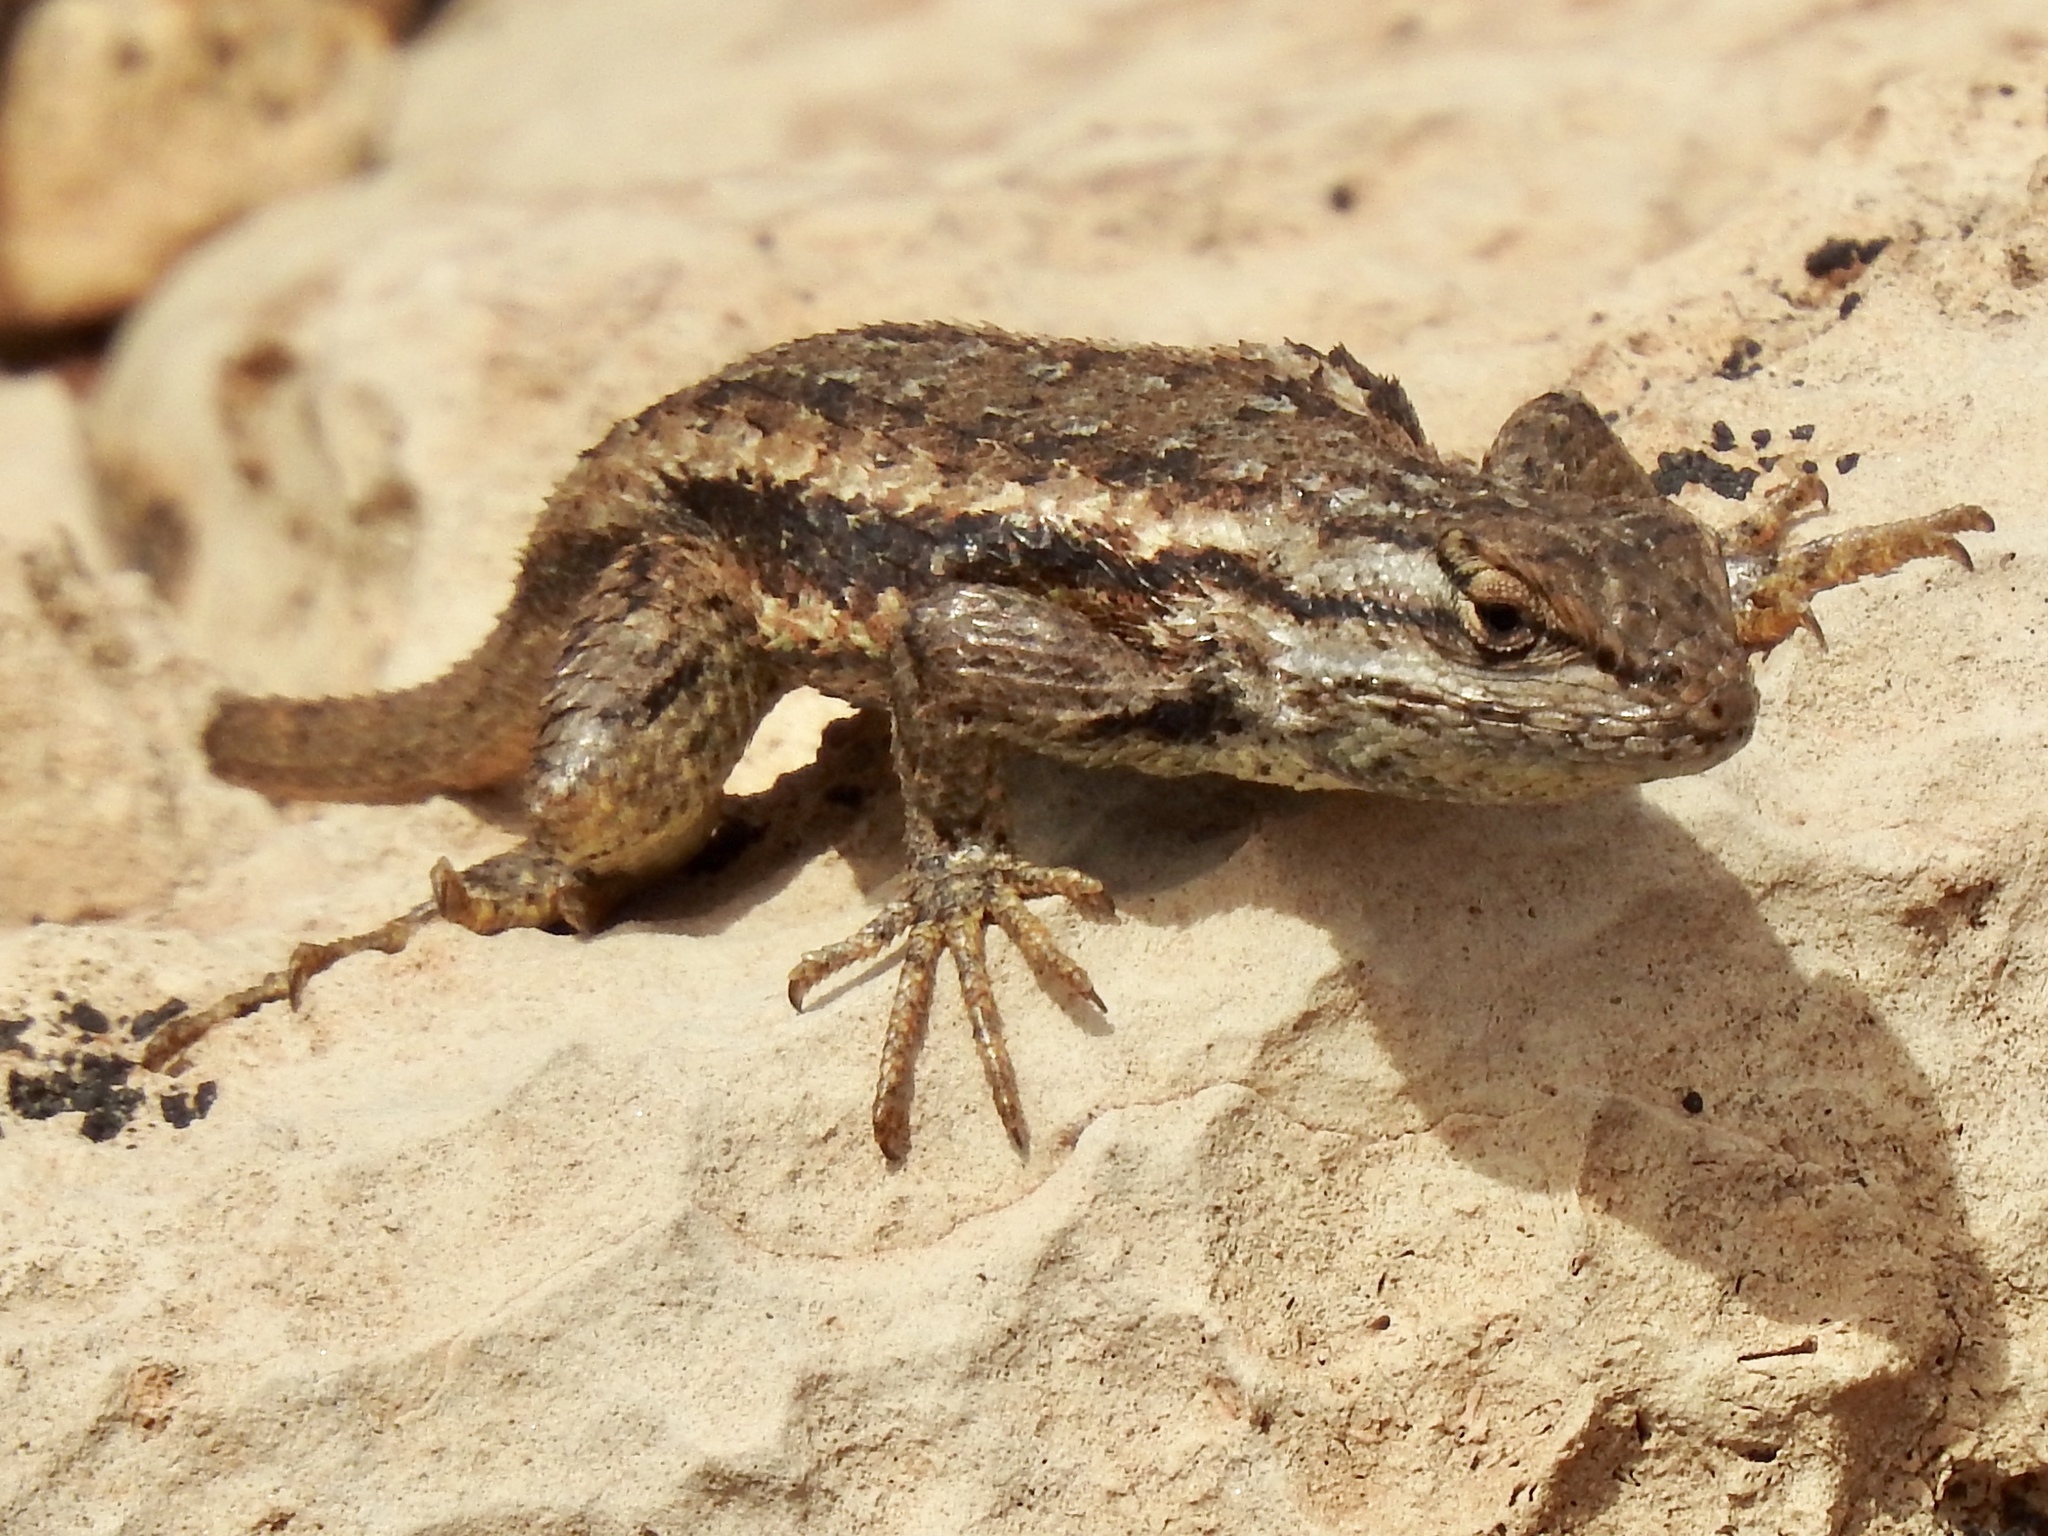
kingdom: Animalia
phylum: Chordata
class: Squamata
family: Phrynosomatidae
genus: Sceloporus
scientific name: Sceloporus tristichus
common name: Plateau fence lizard
